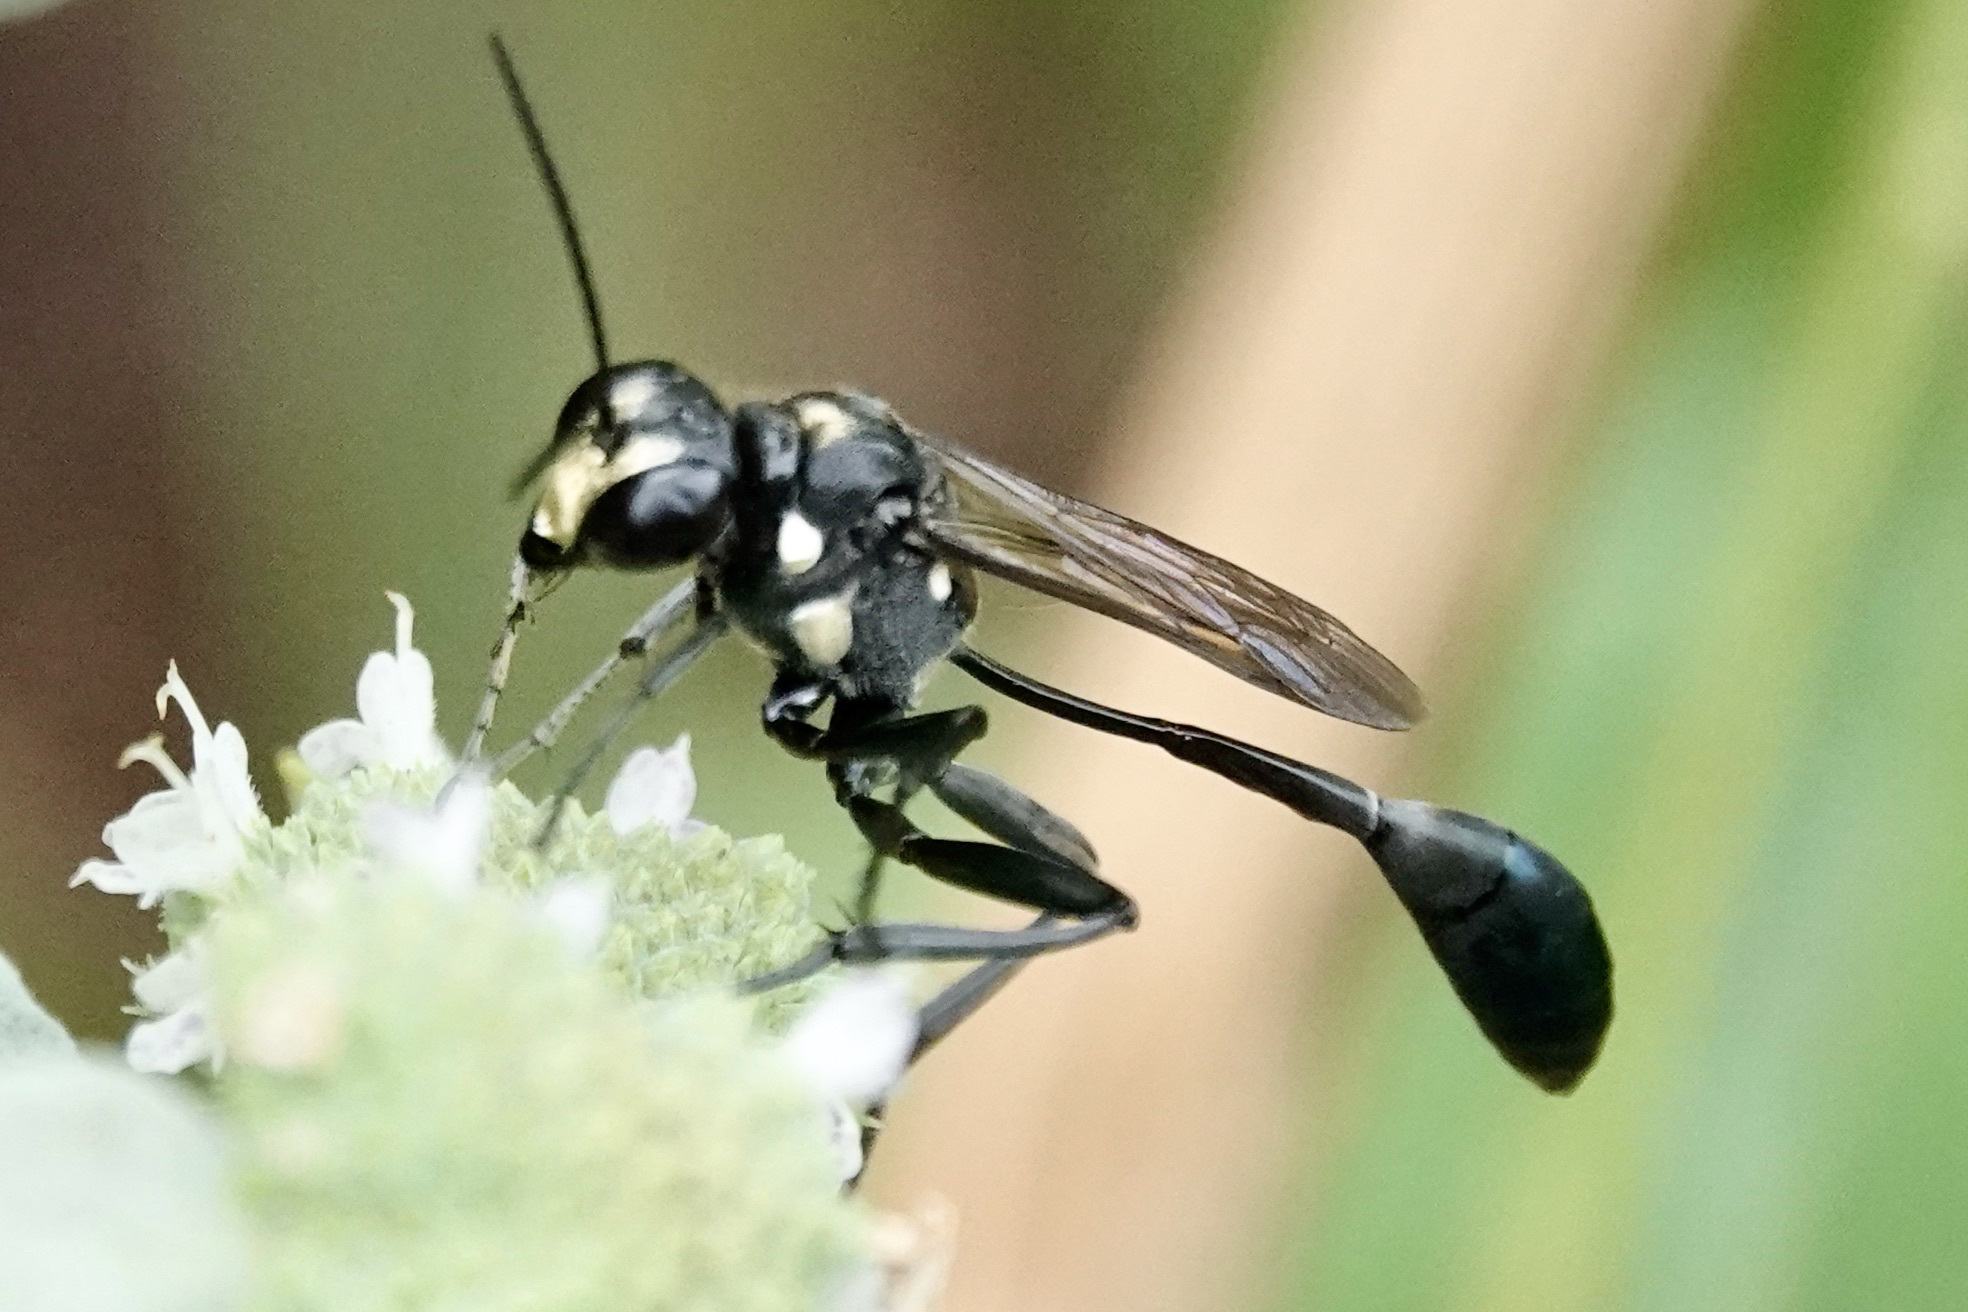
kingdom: Animalia
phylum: Arthropoda
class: Insecta
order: Hymenoptera
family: Sphecidae
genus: Eremnophila
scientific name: Eremnophila aureonotata
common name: Gold-marked thread-waisted wasp
